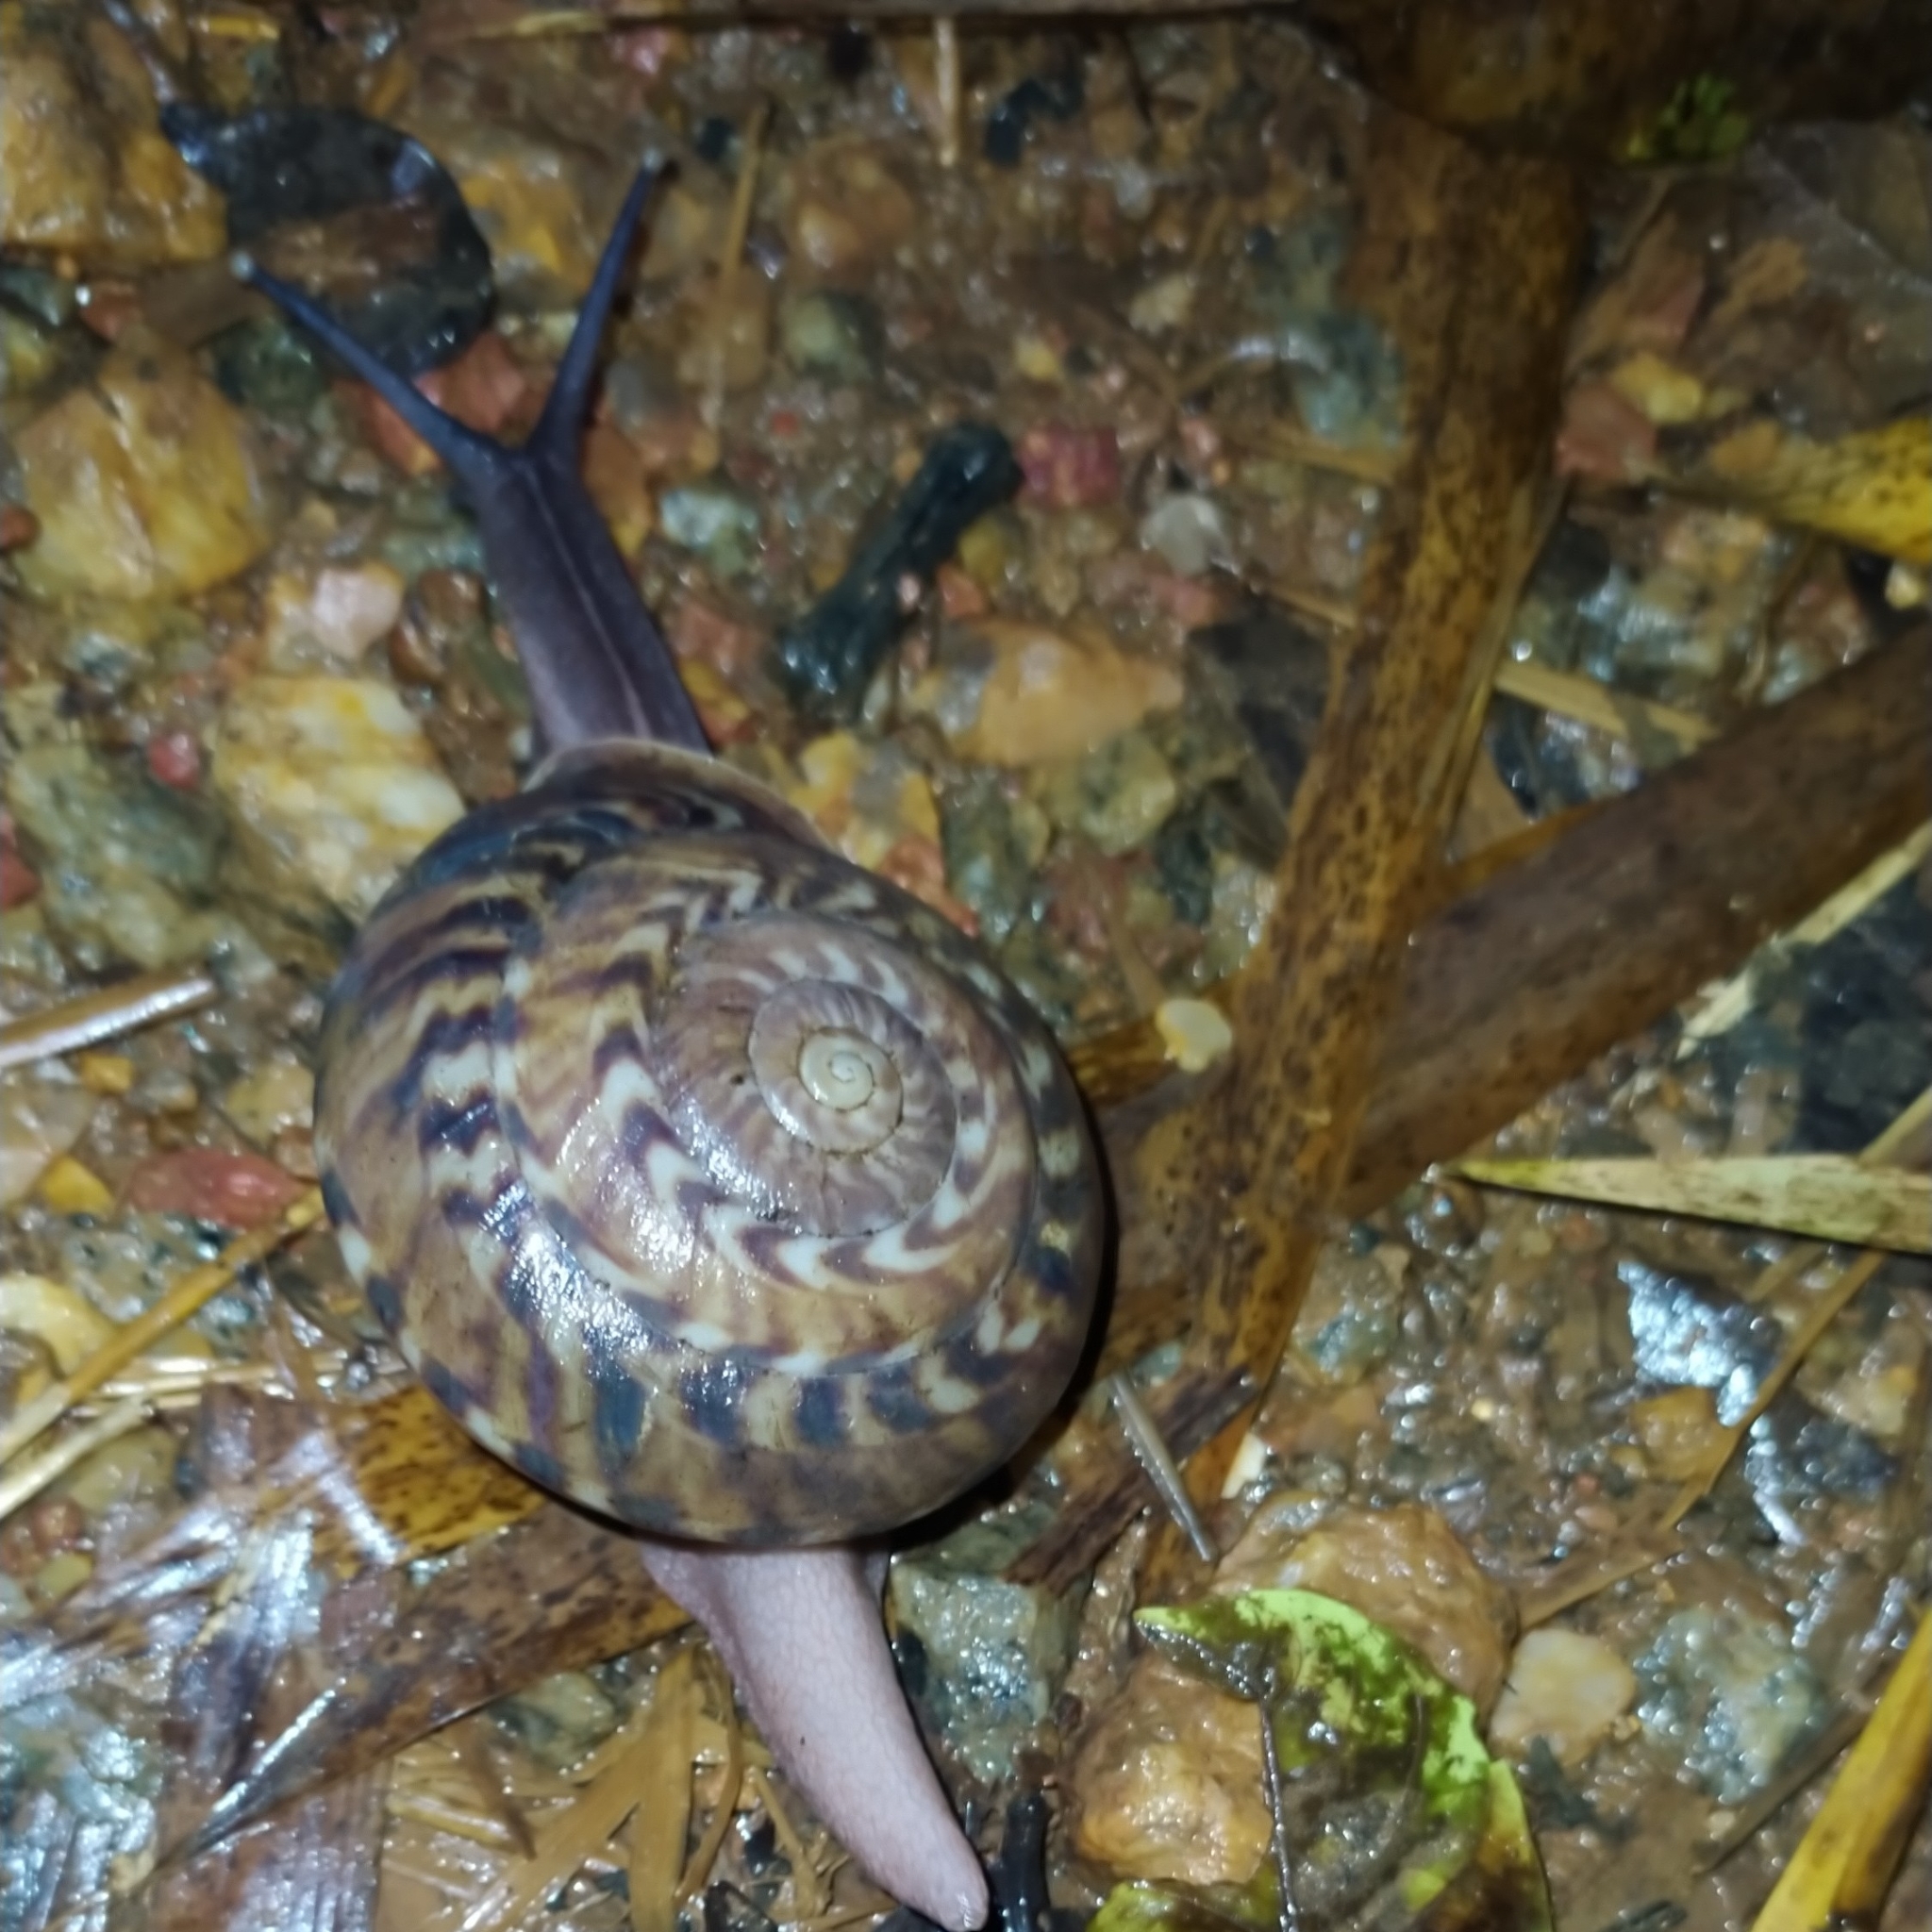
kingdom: Animalia
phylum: Mollusca
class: Gastropoda
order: Stylommatophora
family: Solaropsidae
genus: Solaropsis
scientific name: Solaropsis undata
